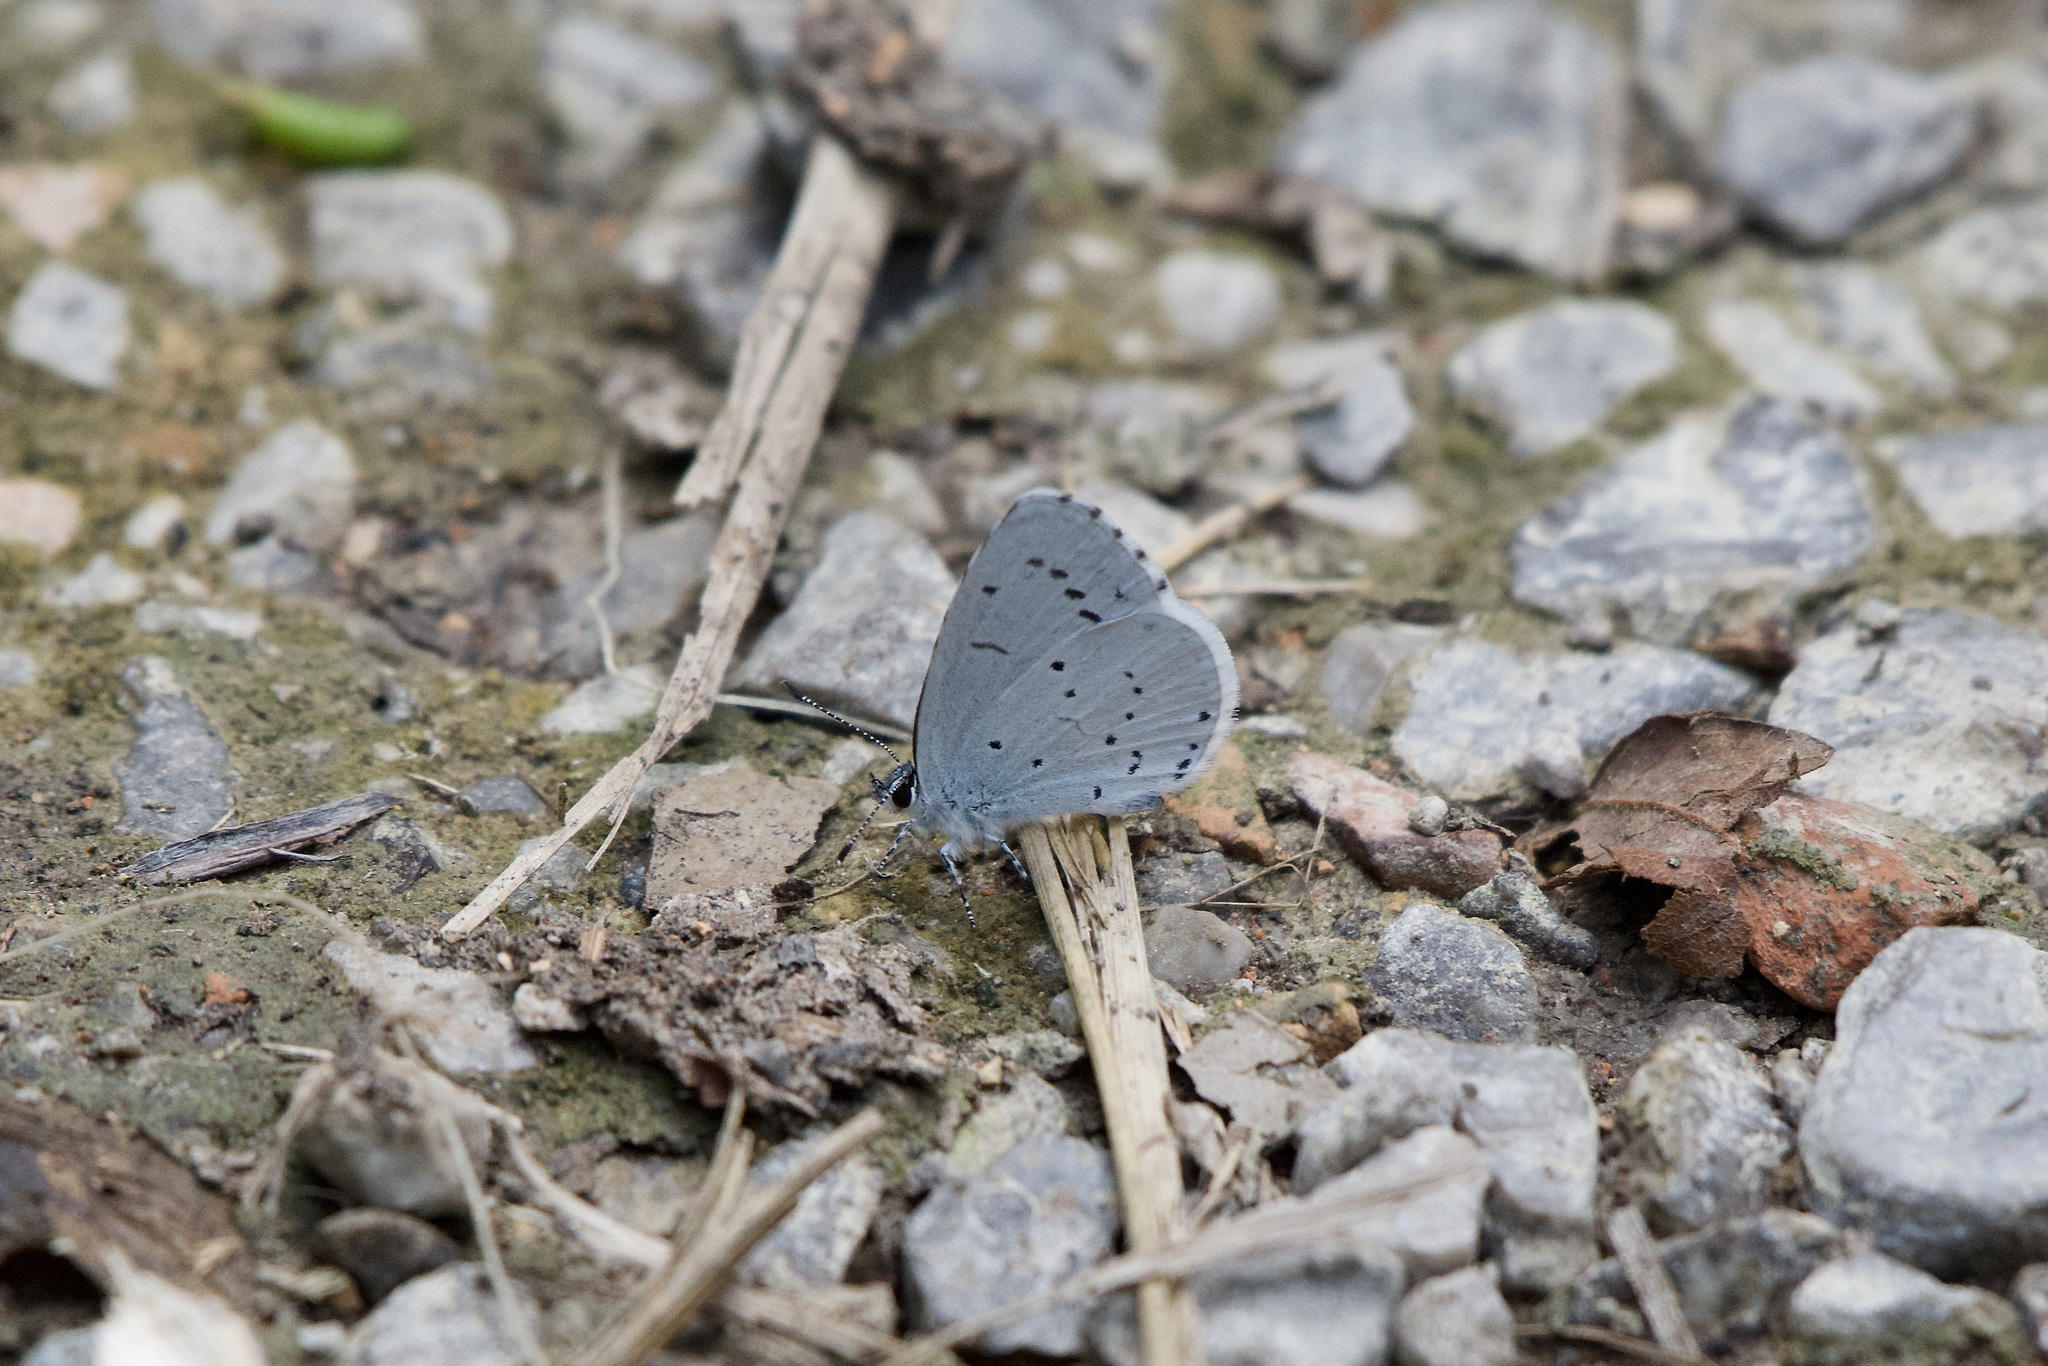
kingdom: Animalia
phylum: Arthropoda
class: Insecta
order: Lepidoptera
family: Lycaenidae
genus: Celastrina
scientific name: Celastrina argiolus
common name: Holly blue
